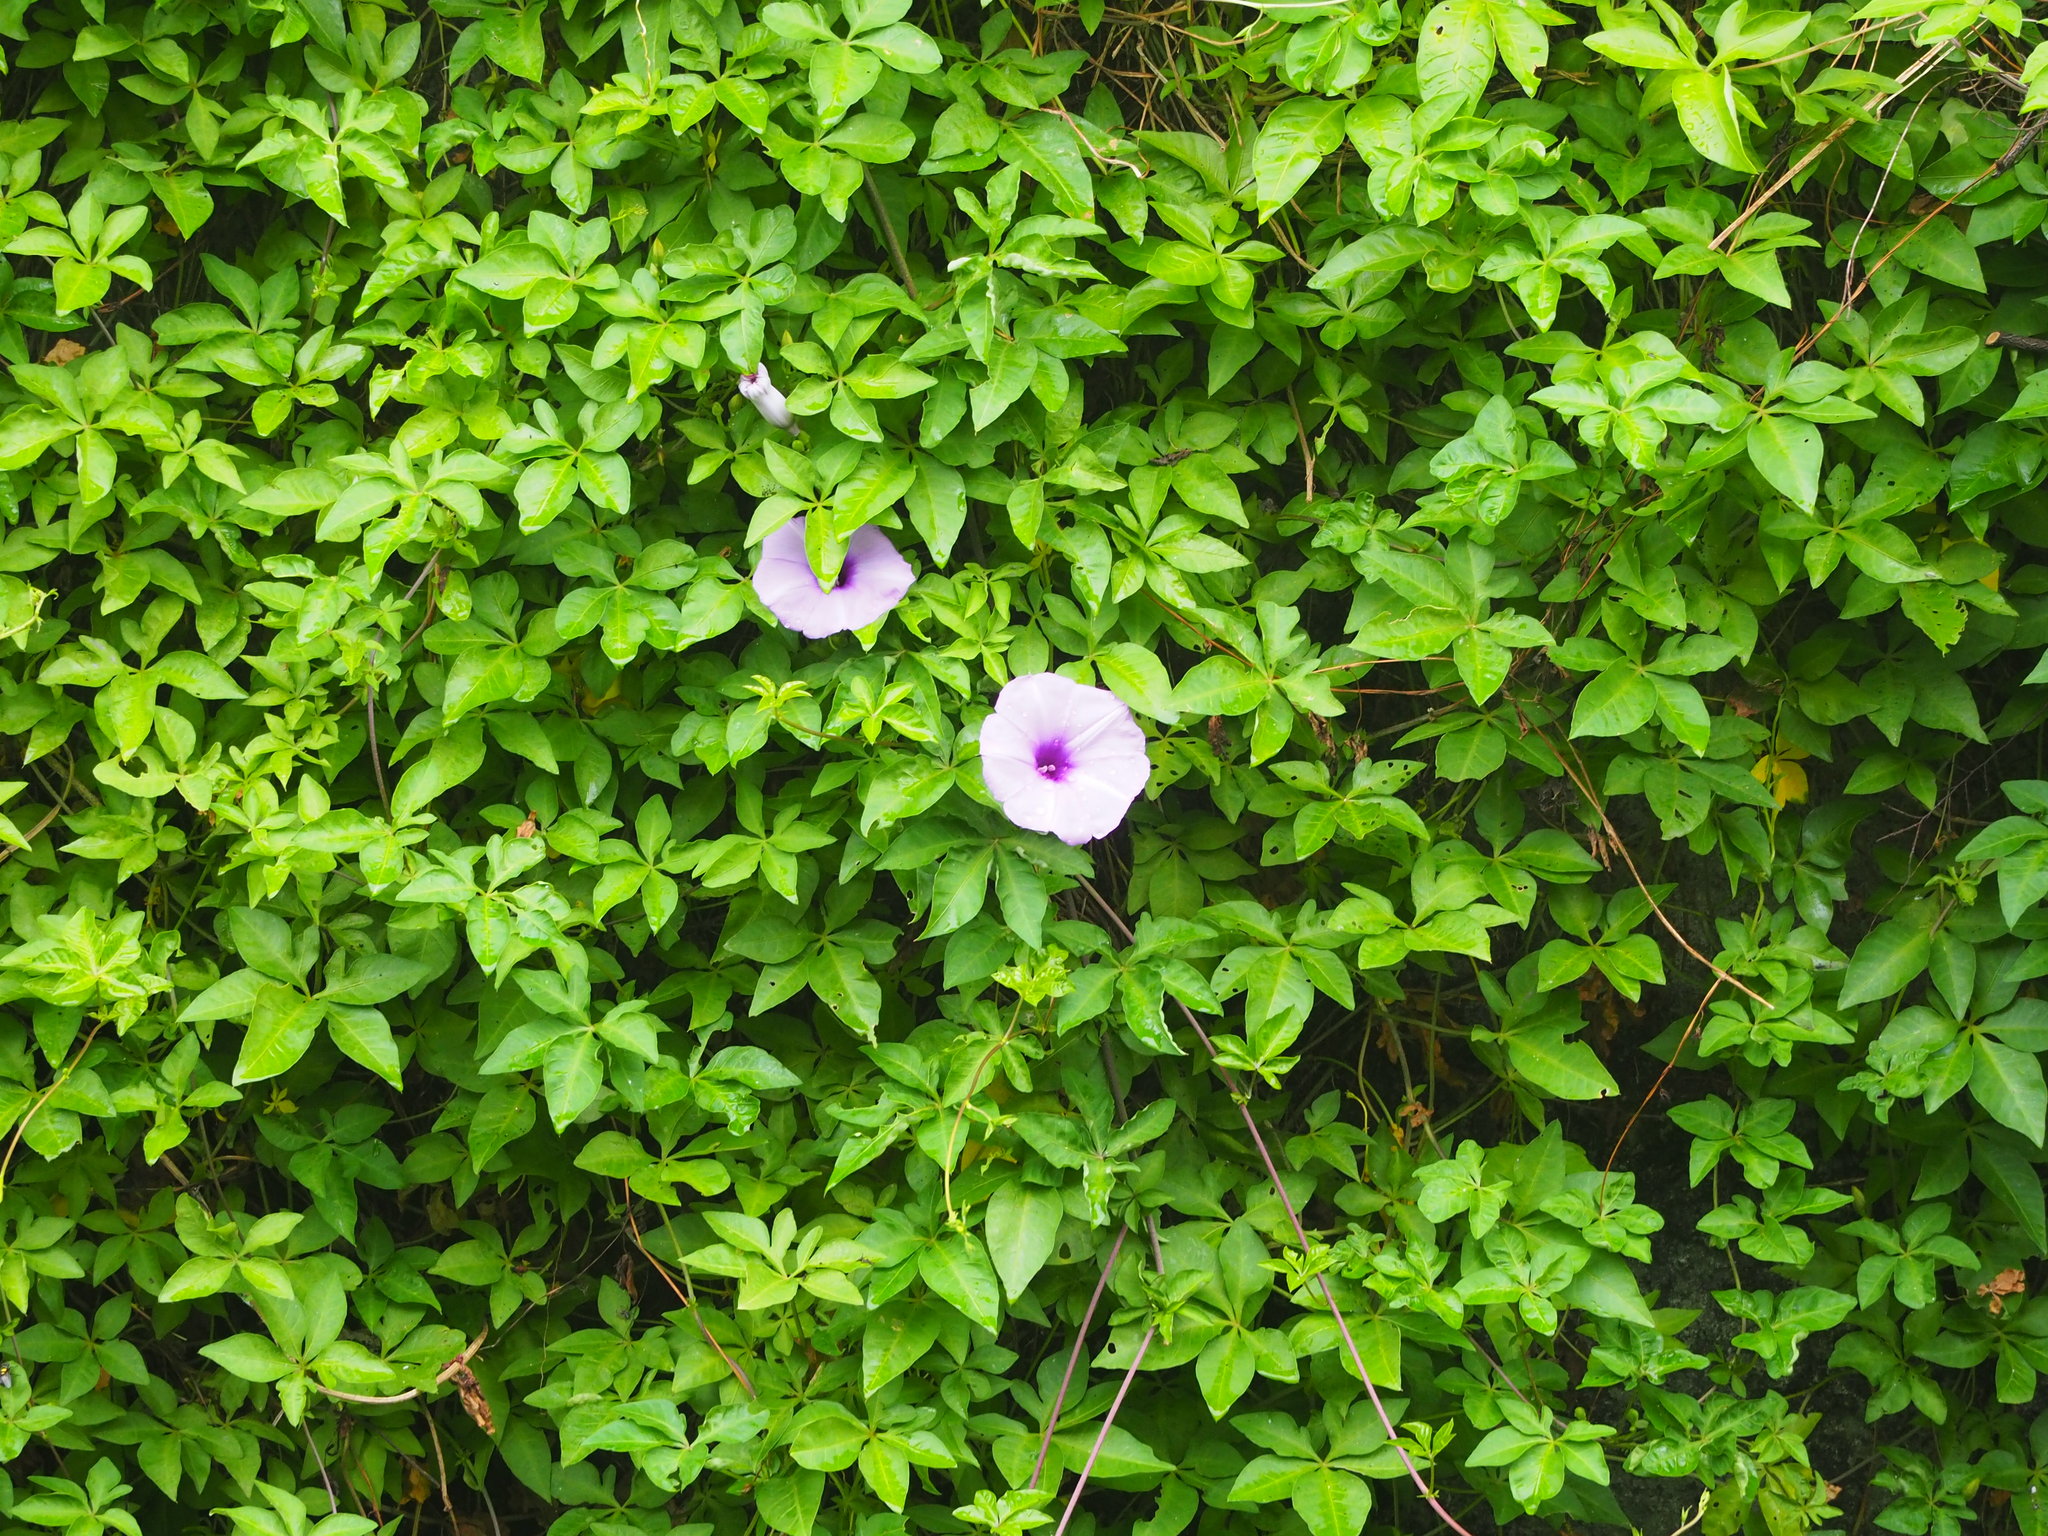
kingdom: Plantae
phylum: Tracheophyta
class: Magnoliopsida
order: Solanales
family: Convolvulaceae
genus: Ipomoea
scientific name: Ipomoea cairica
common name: Mile a minute vine
